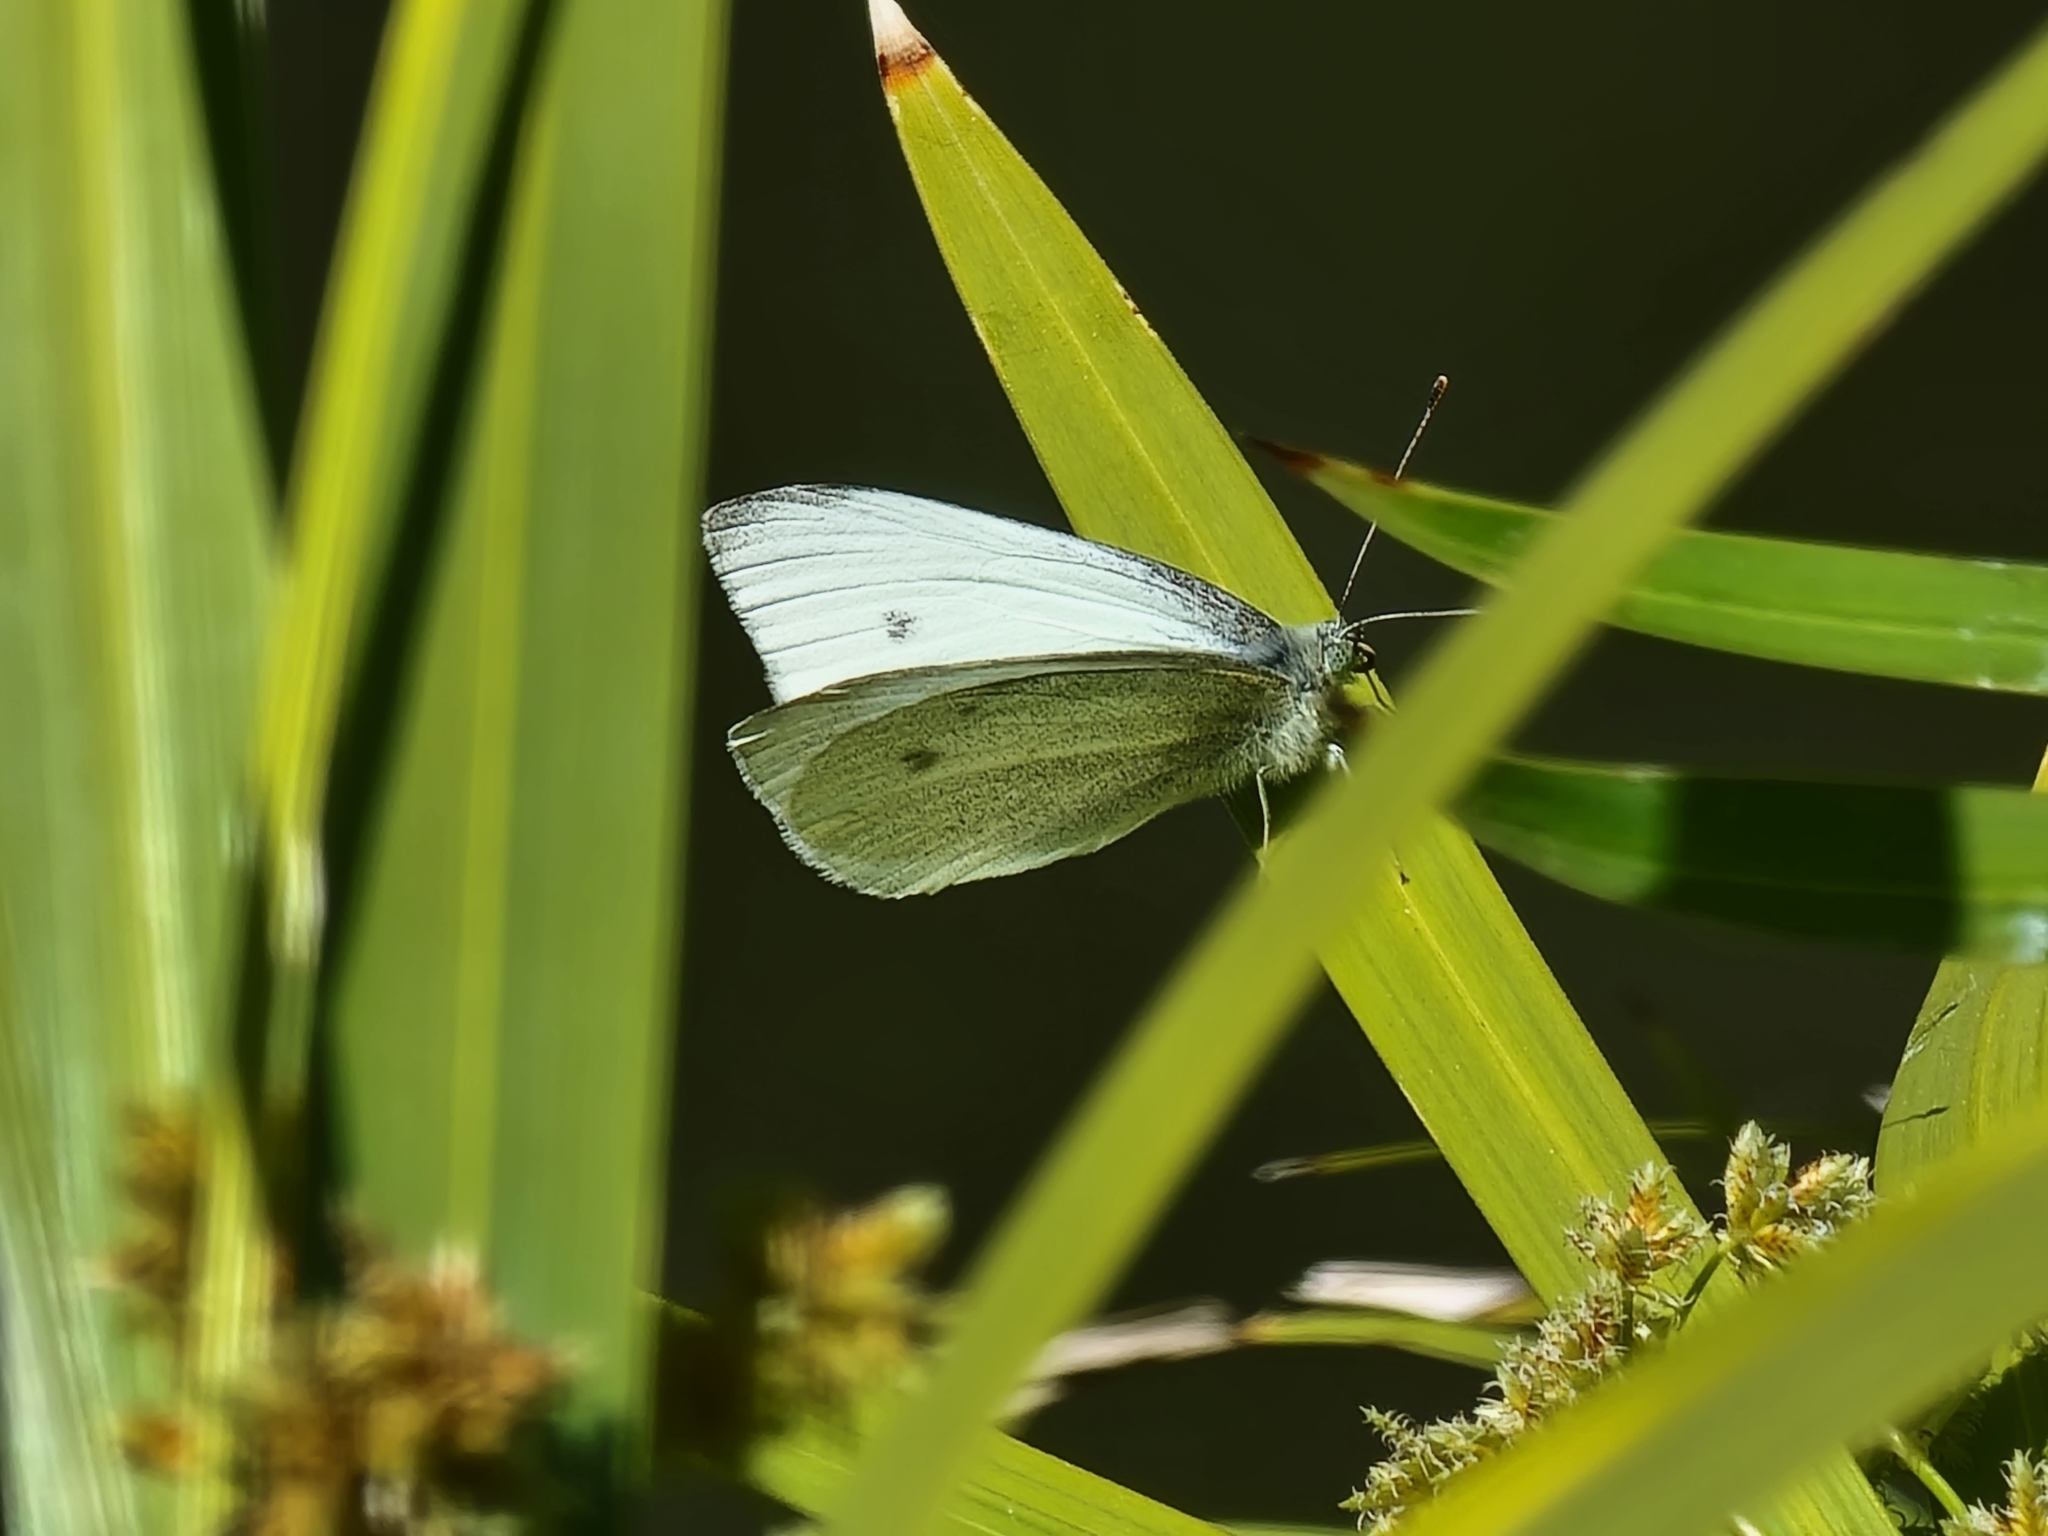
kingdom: Animalia
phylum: Arthropoda
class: Insecta
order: Lepidoptera
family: Pieridae
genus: Pieris
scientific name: Pieris rapae
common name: Small white
